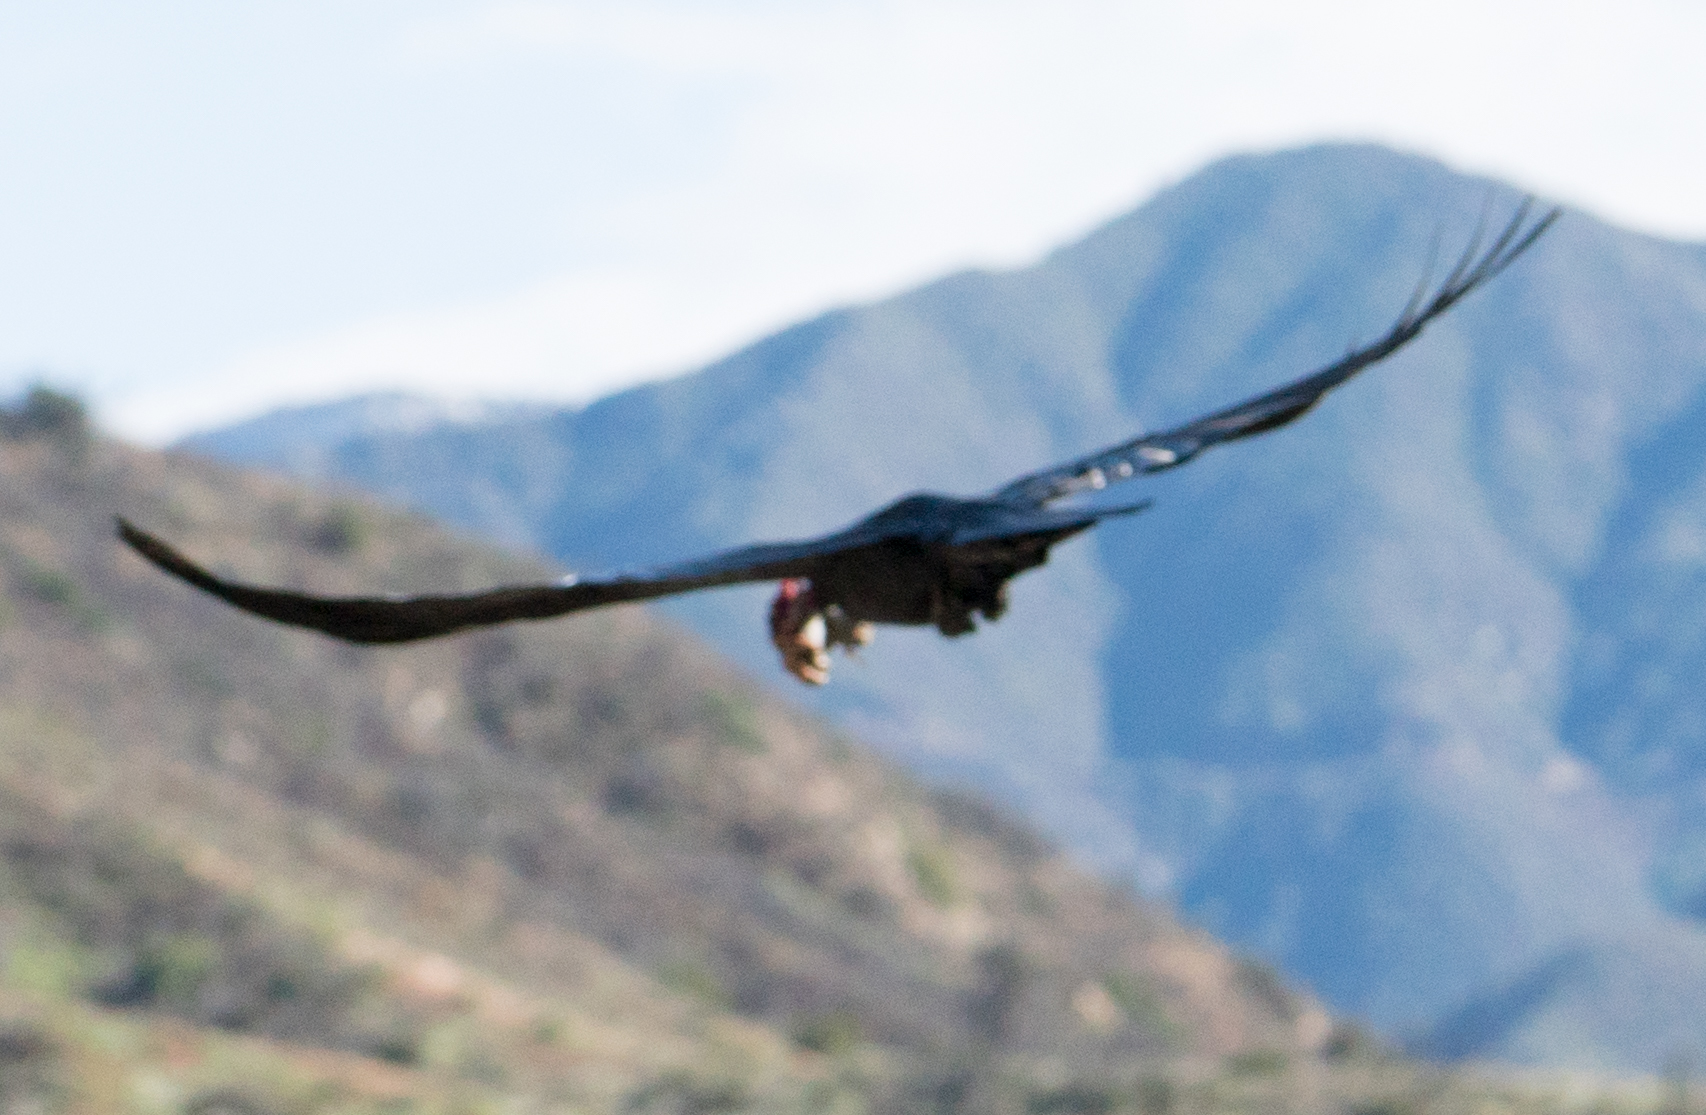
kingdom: Animalia
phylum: Chordata
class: Aves
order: Passeriformes
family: Corvidae
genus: Corvus
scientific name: Corvus corax
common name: Common raven
